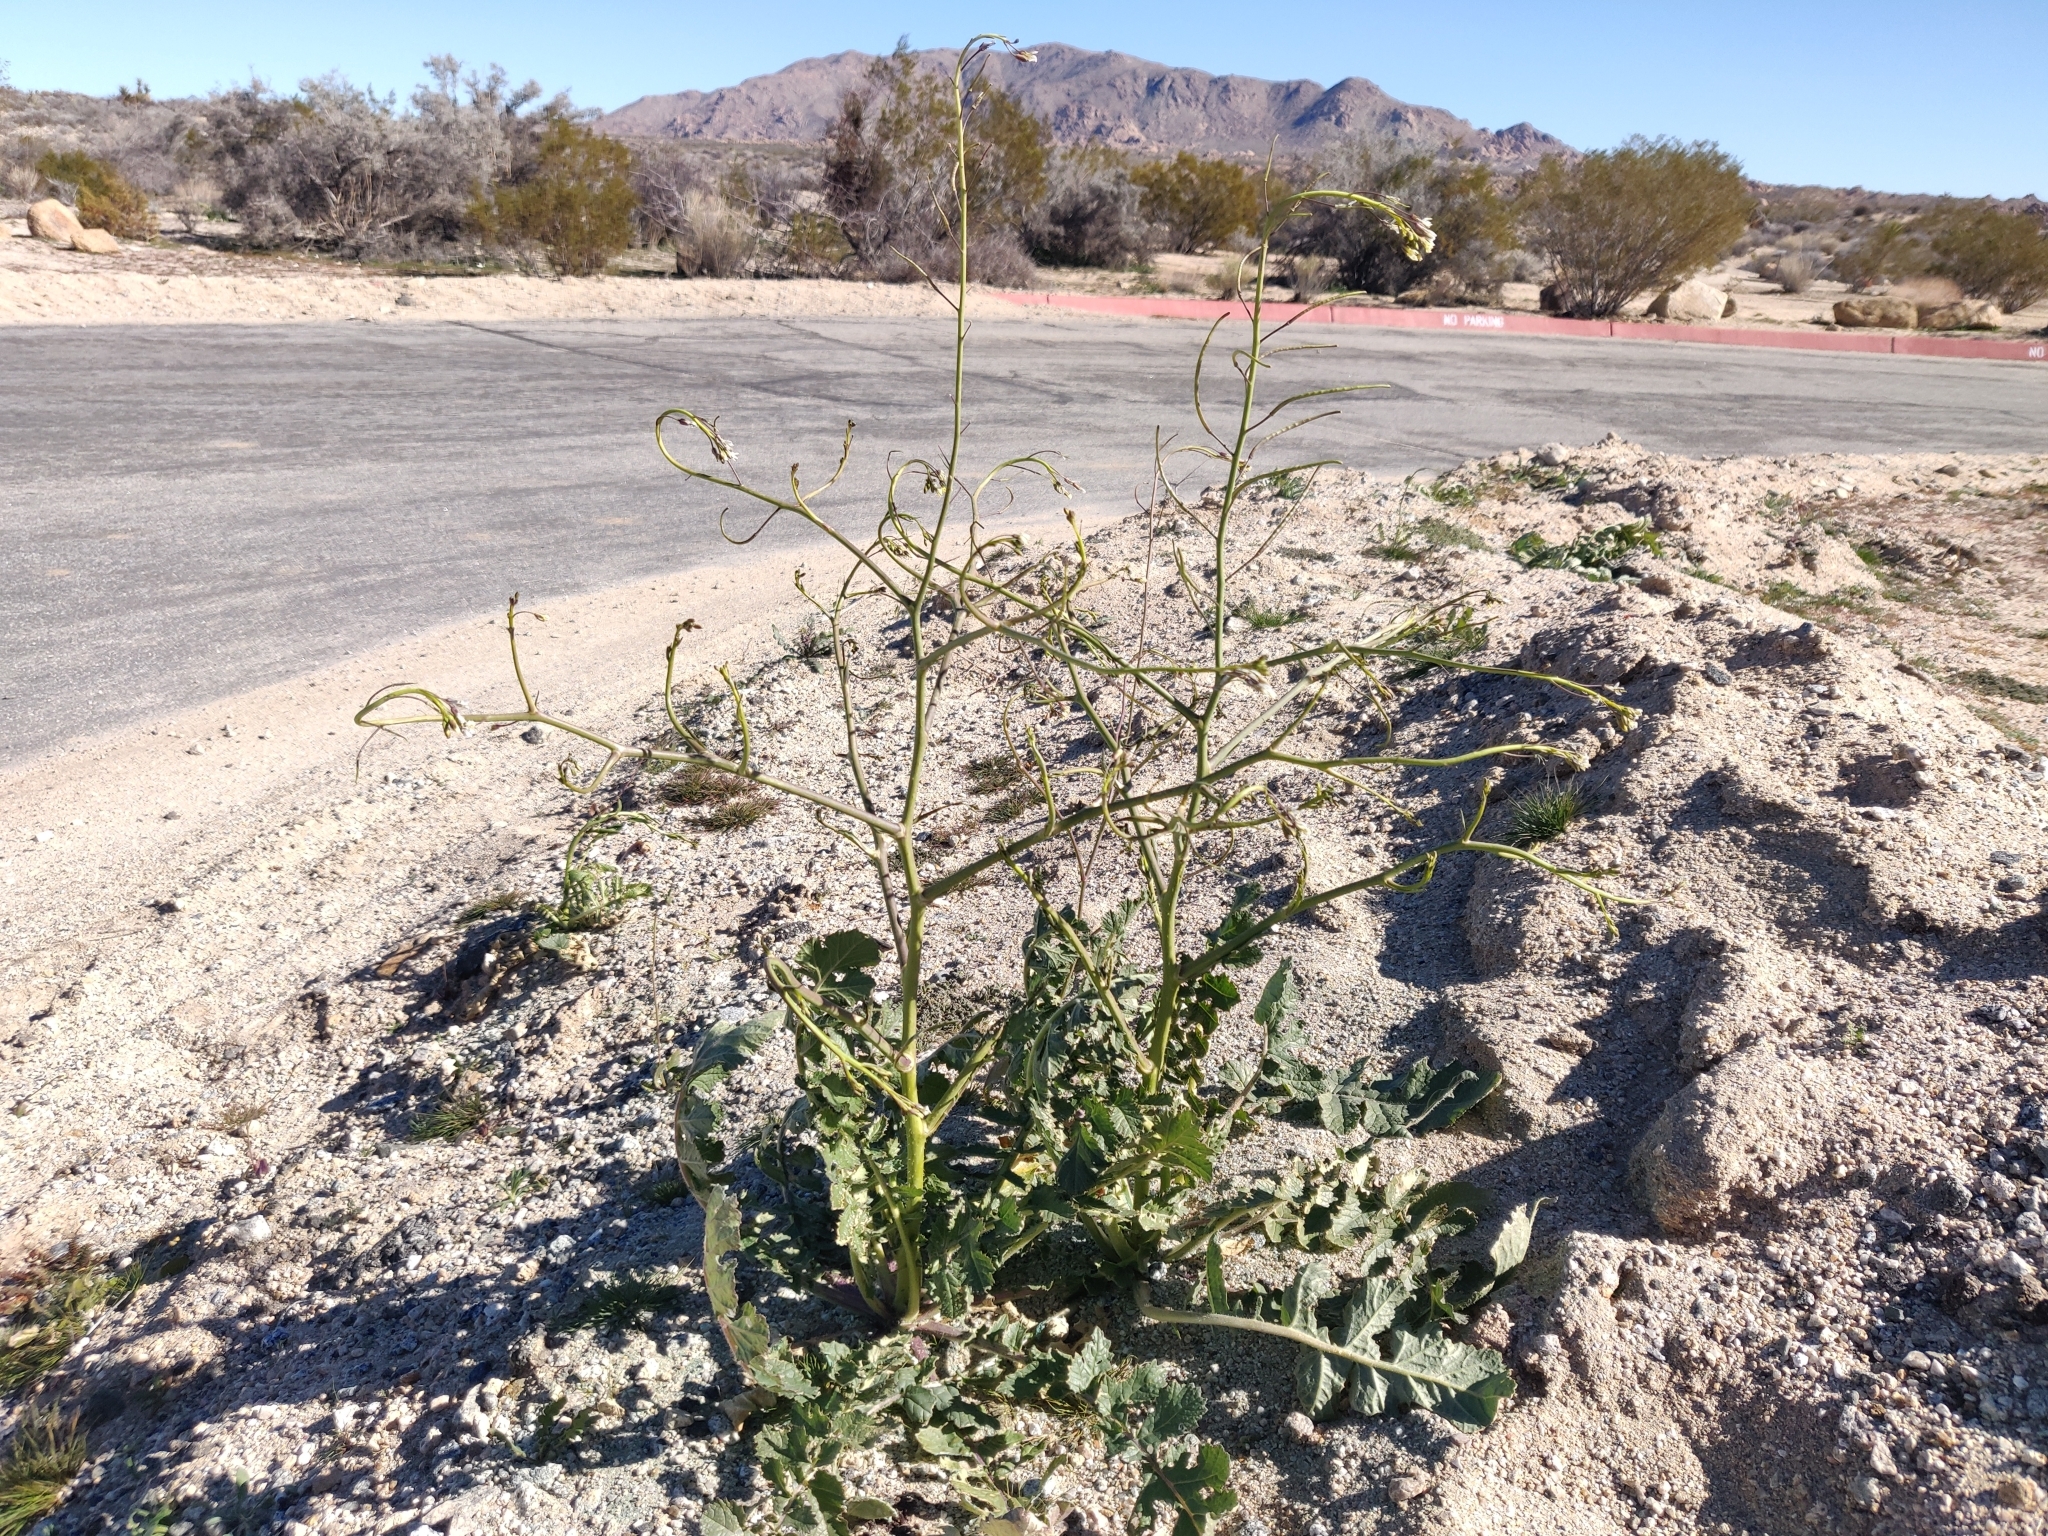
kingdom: Plantae
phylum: Tracheophyta
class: Magnoliopsida
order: Brassicales
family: Brassicaceae
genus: Brassica
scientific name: Brassica tournefortii
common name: Pale cabbage
